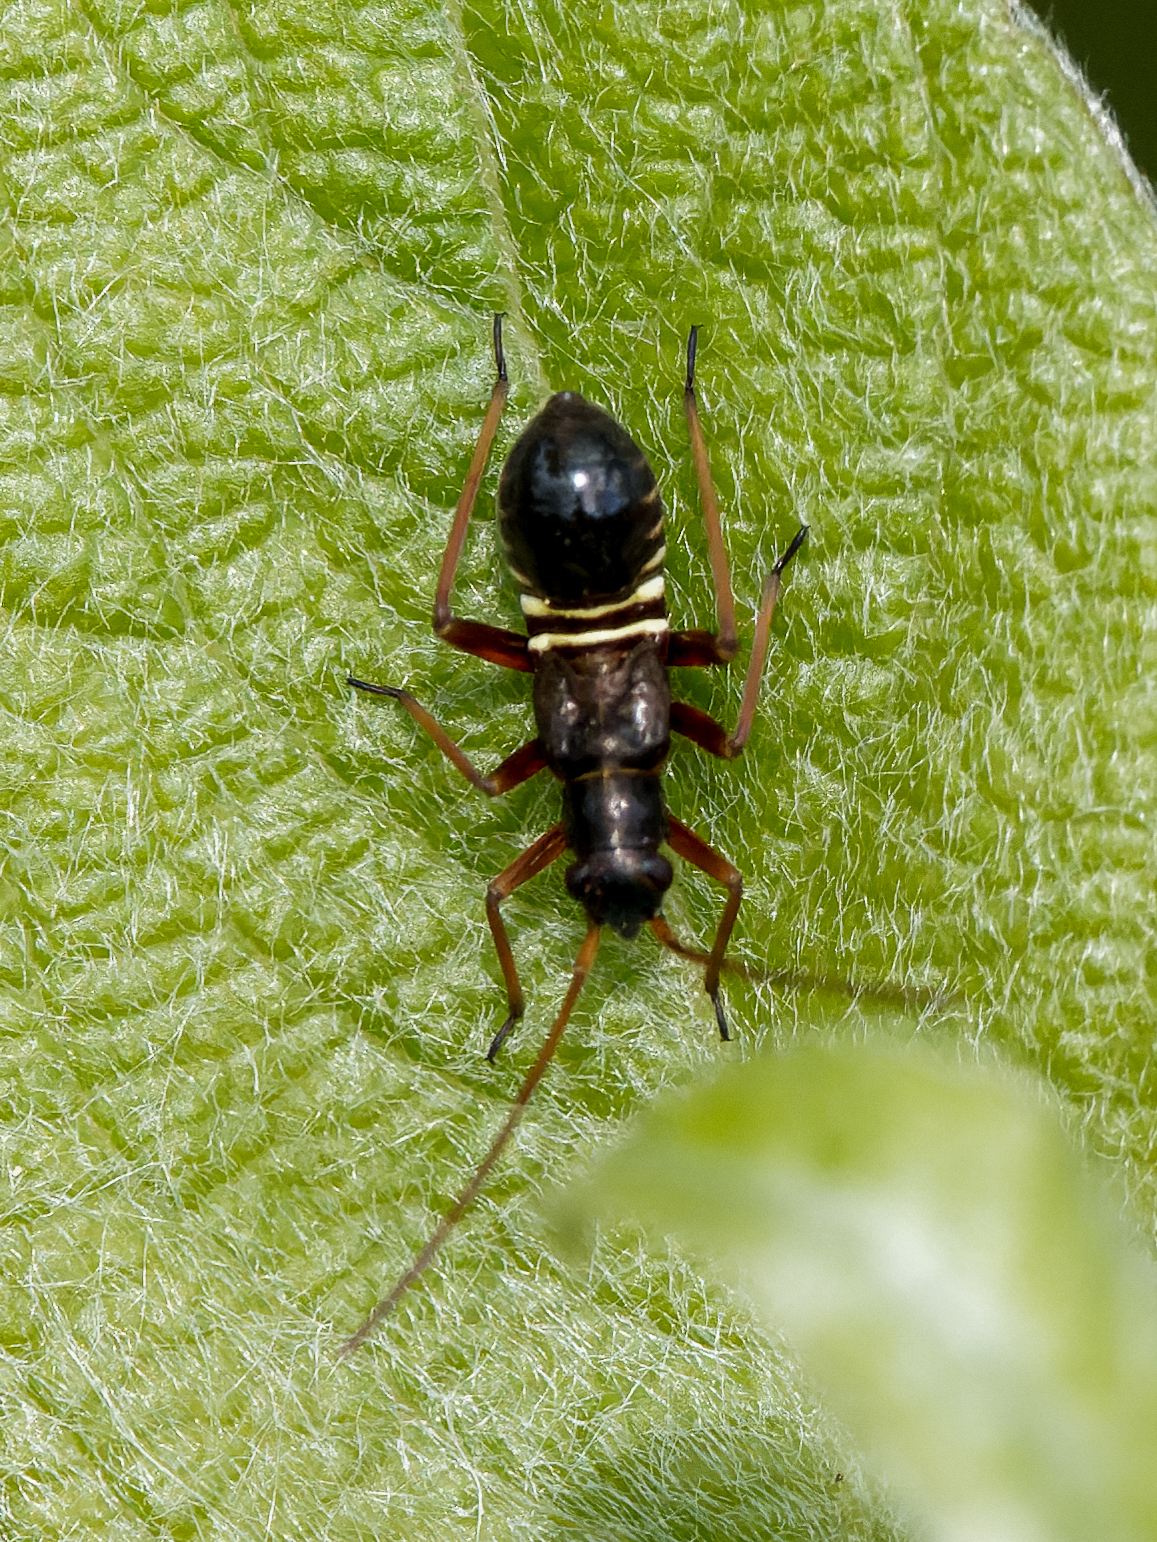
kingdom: Animalia
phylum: Arthropoda
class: Insecta
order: Hemiptera
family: Miridae
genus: Miris
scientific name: Miris striatus
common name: Fine streaked bugkin
